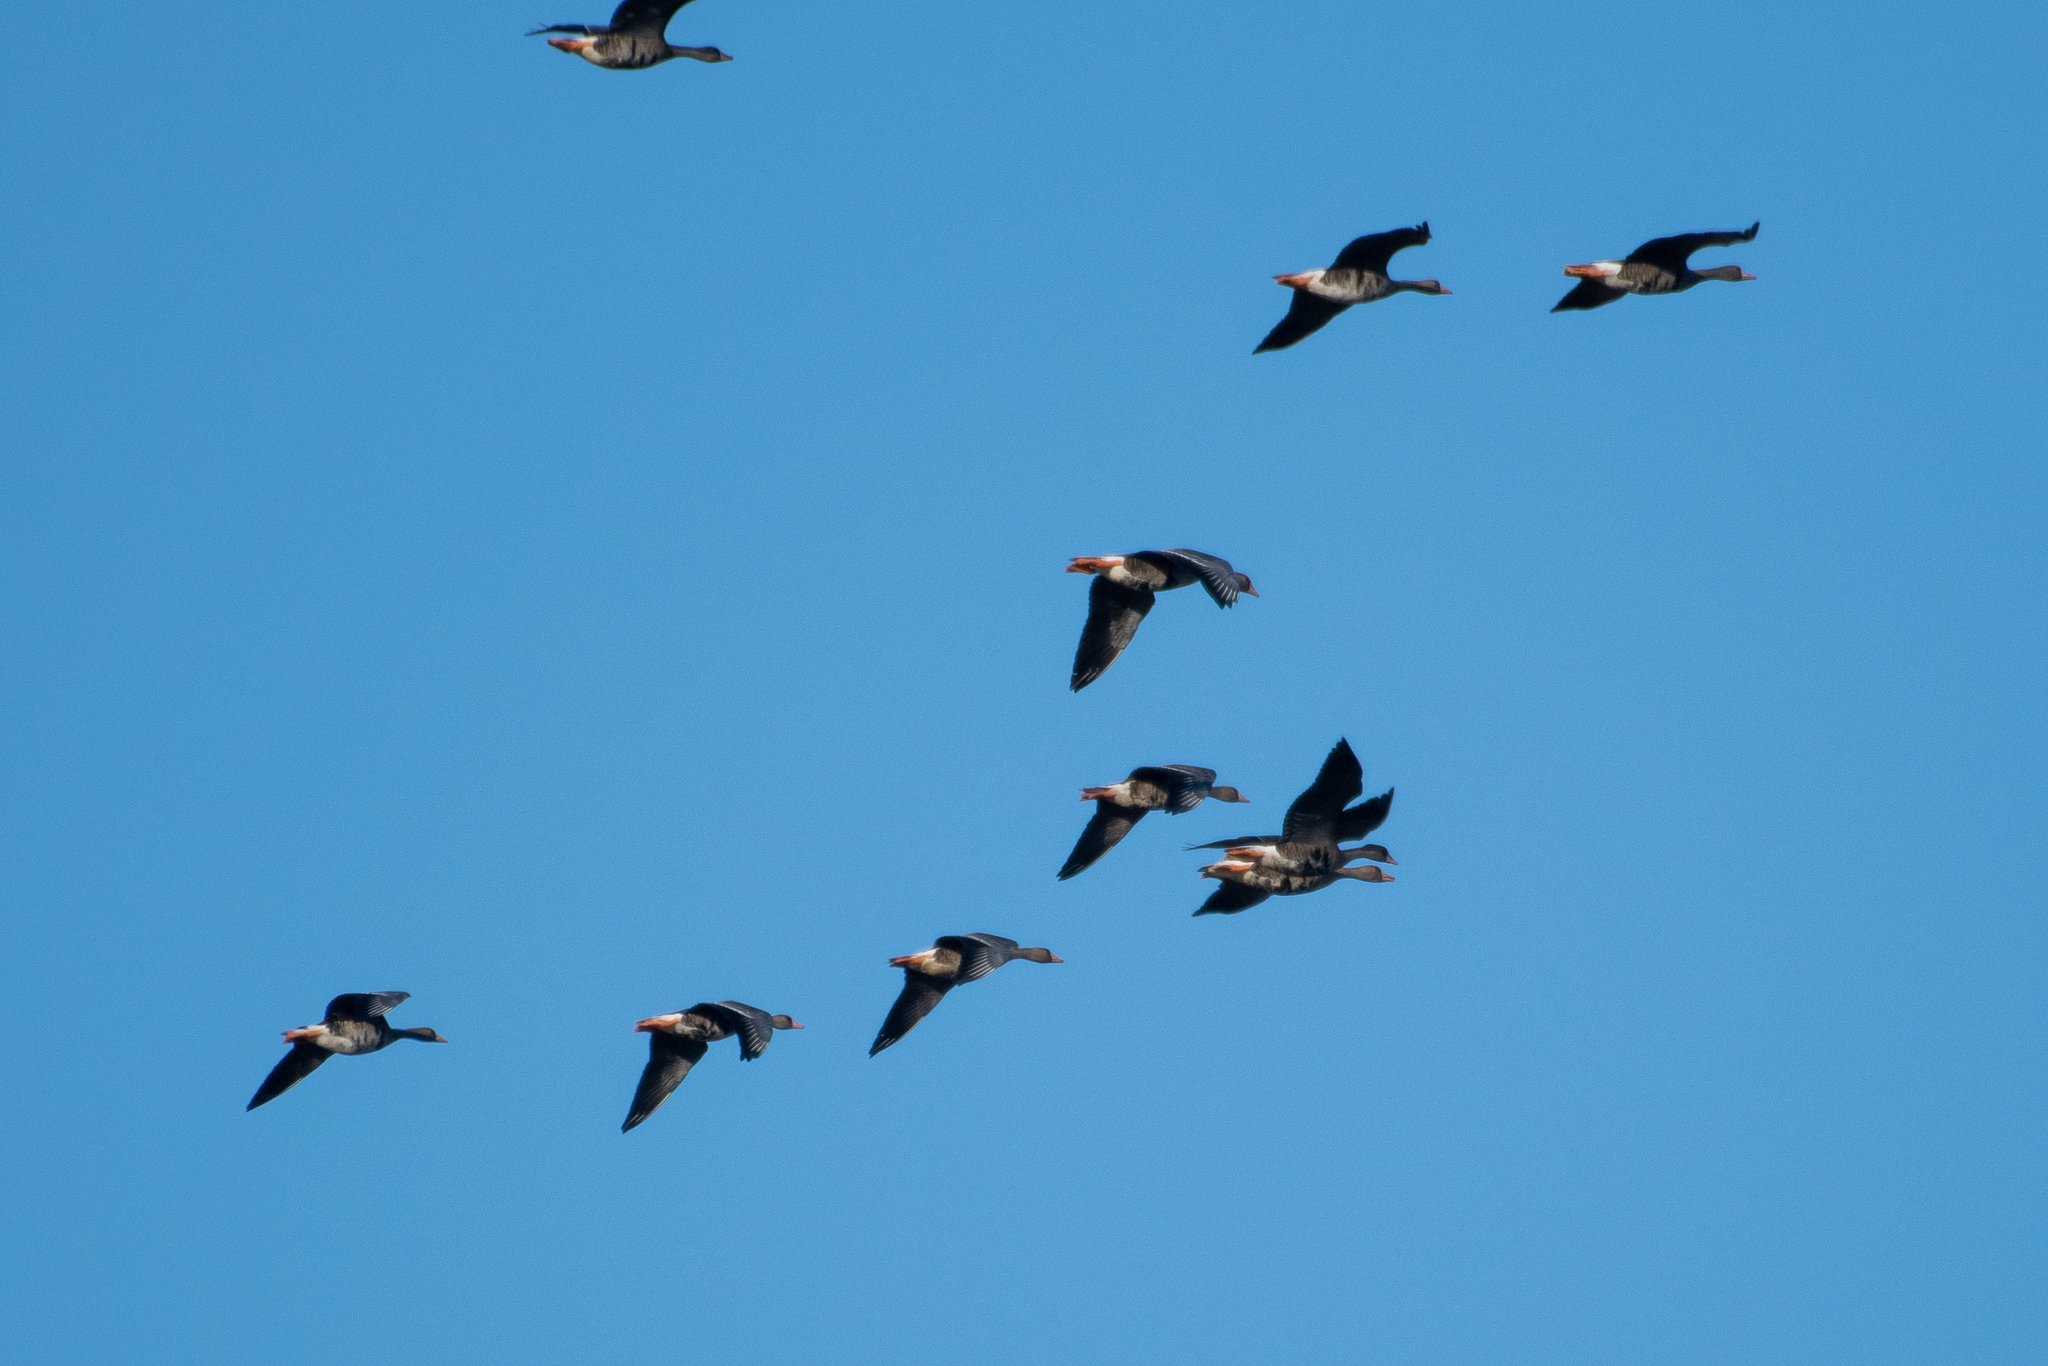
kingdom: Animalia
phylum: Chordata
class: Aves
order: Anseriformes
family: Anatidae
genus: Anser
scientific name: Anser albifrons
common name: Greater white-fronted goose
